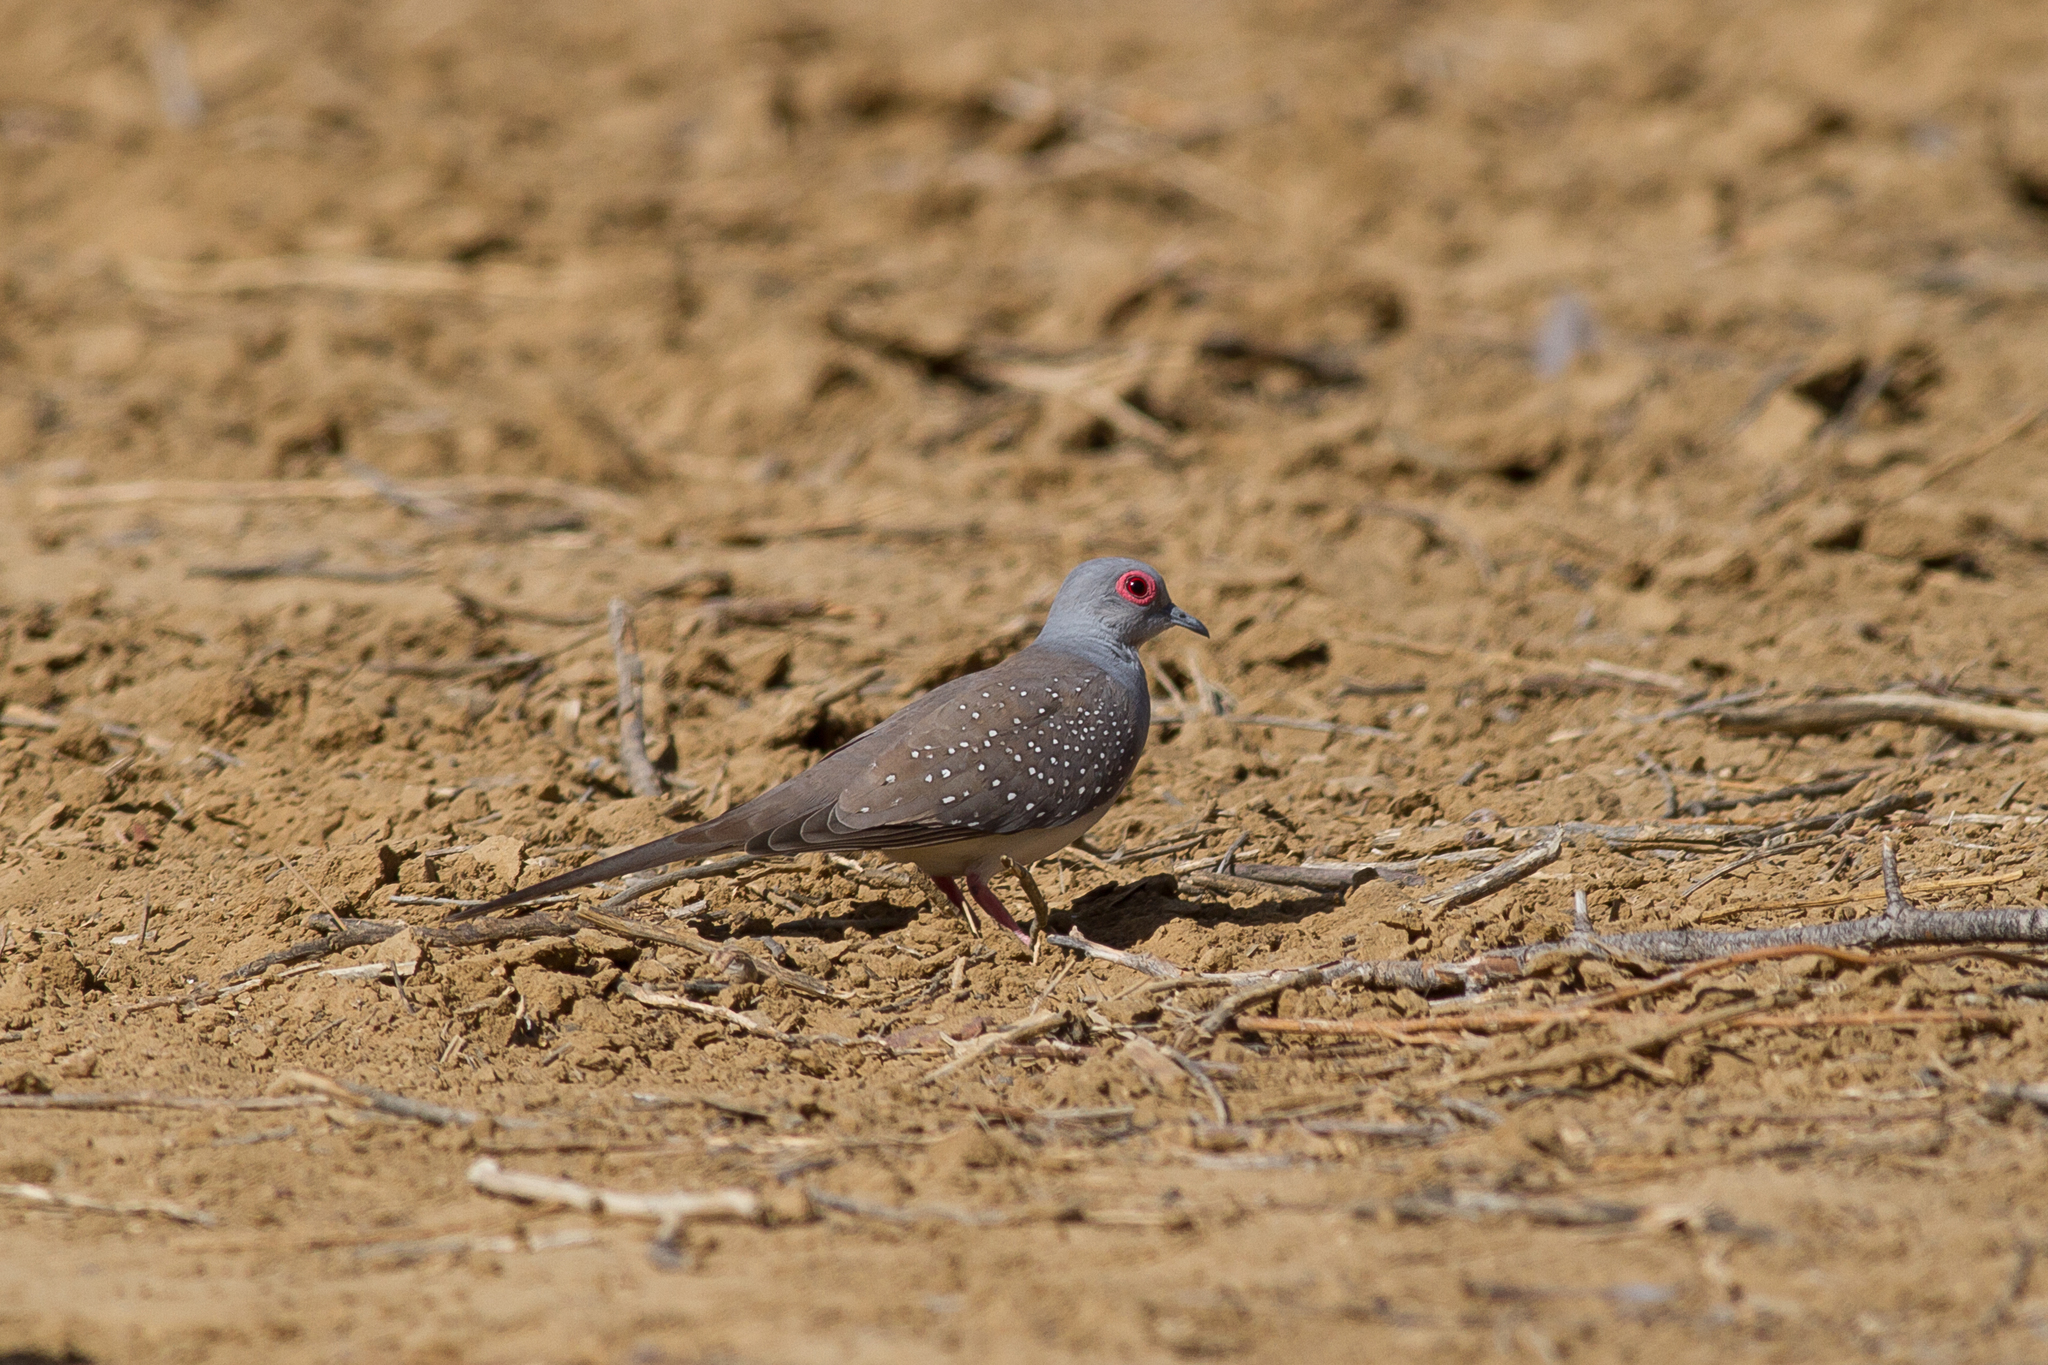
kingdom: Animalia
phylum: Chordata
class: Aves
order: Columbiformes
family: Columbidae
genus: Geopelia
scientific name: Geopelia cuneata
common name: Diamond dove
